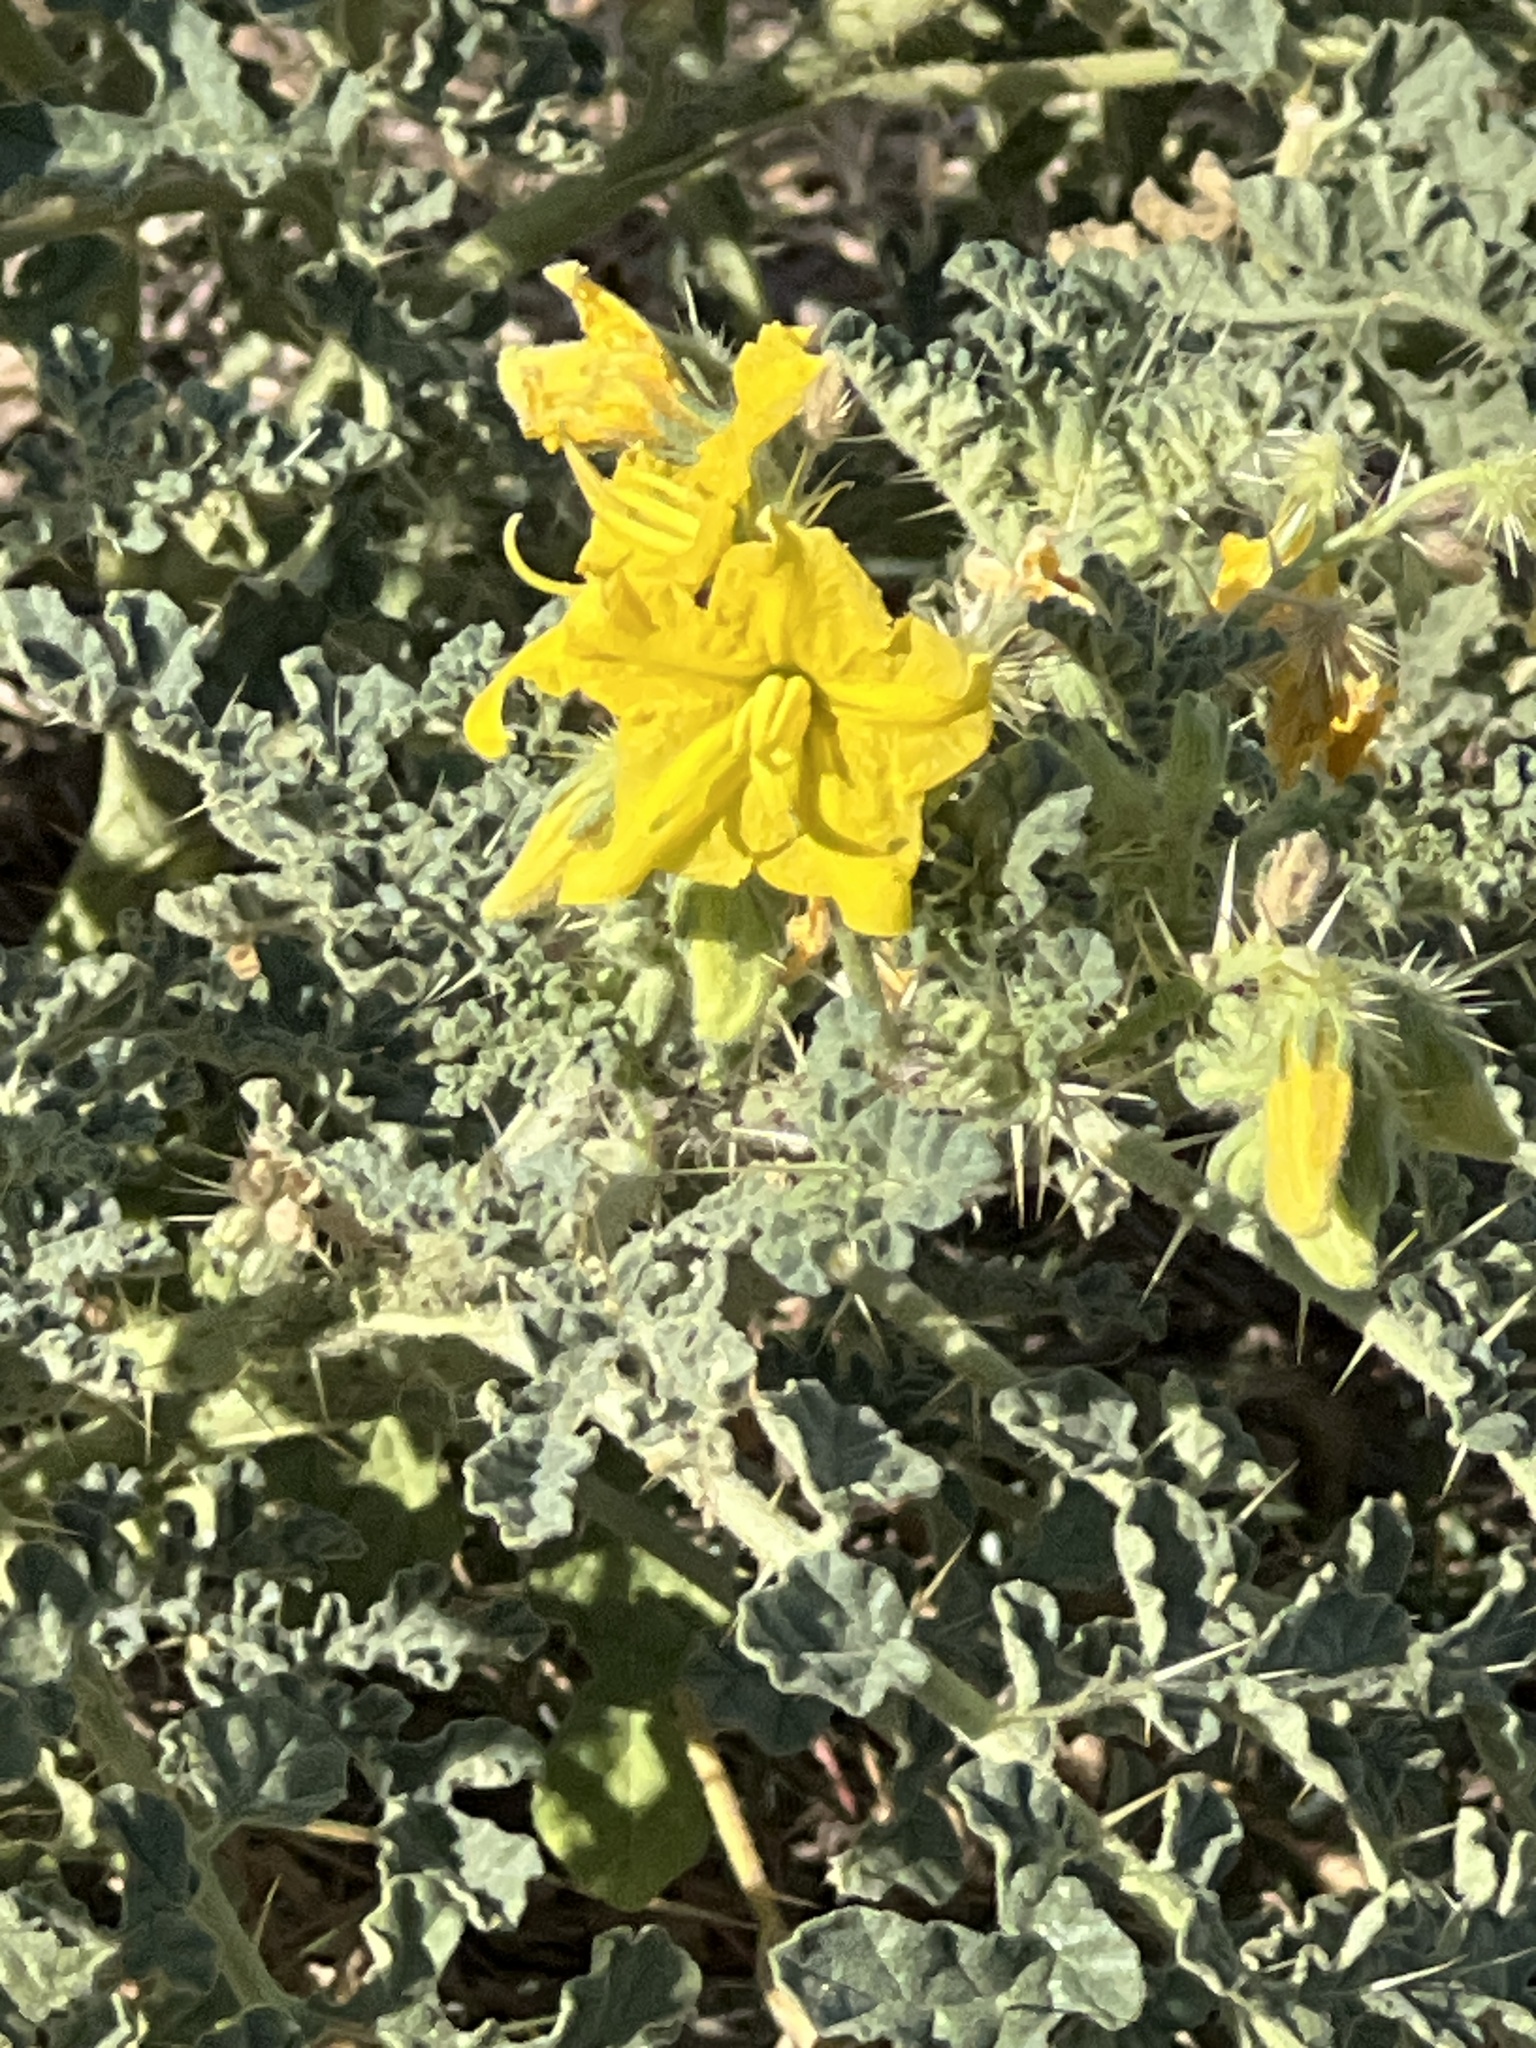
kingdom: Plantae
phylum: Tracheophyta
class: Magnoliopsida
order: Solanales
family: Solanaceae
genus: Solanum
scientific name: Solanum angustifolium
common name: Buffalobur nightshade
